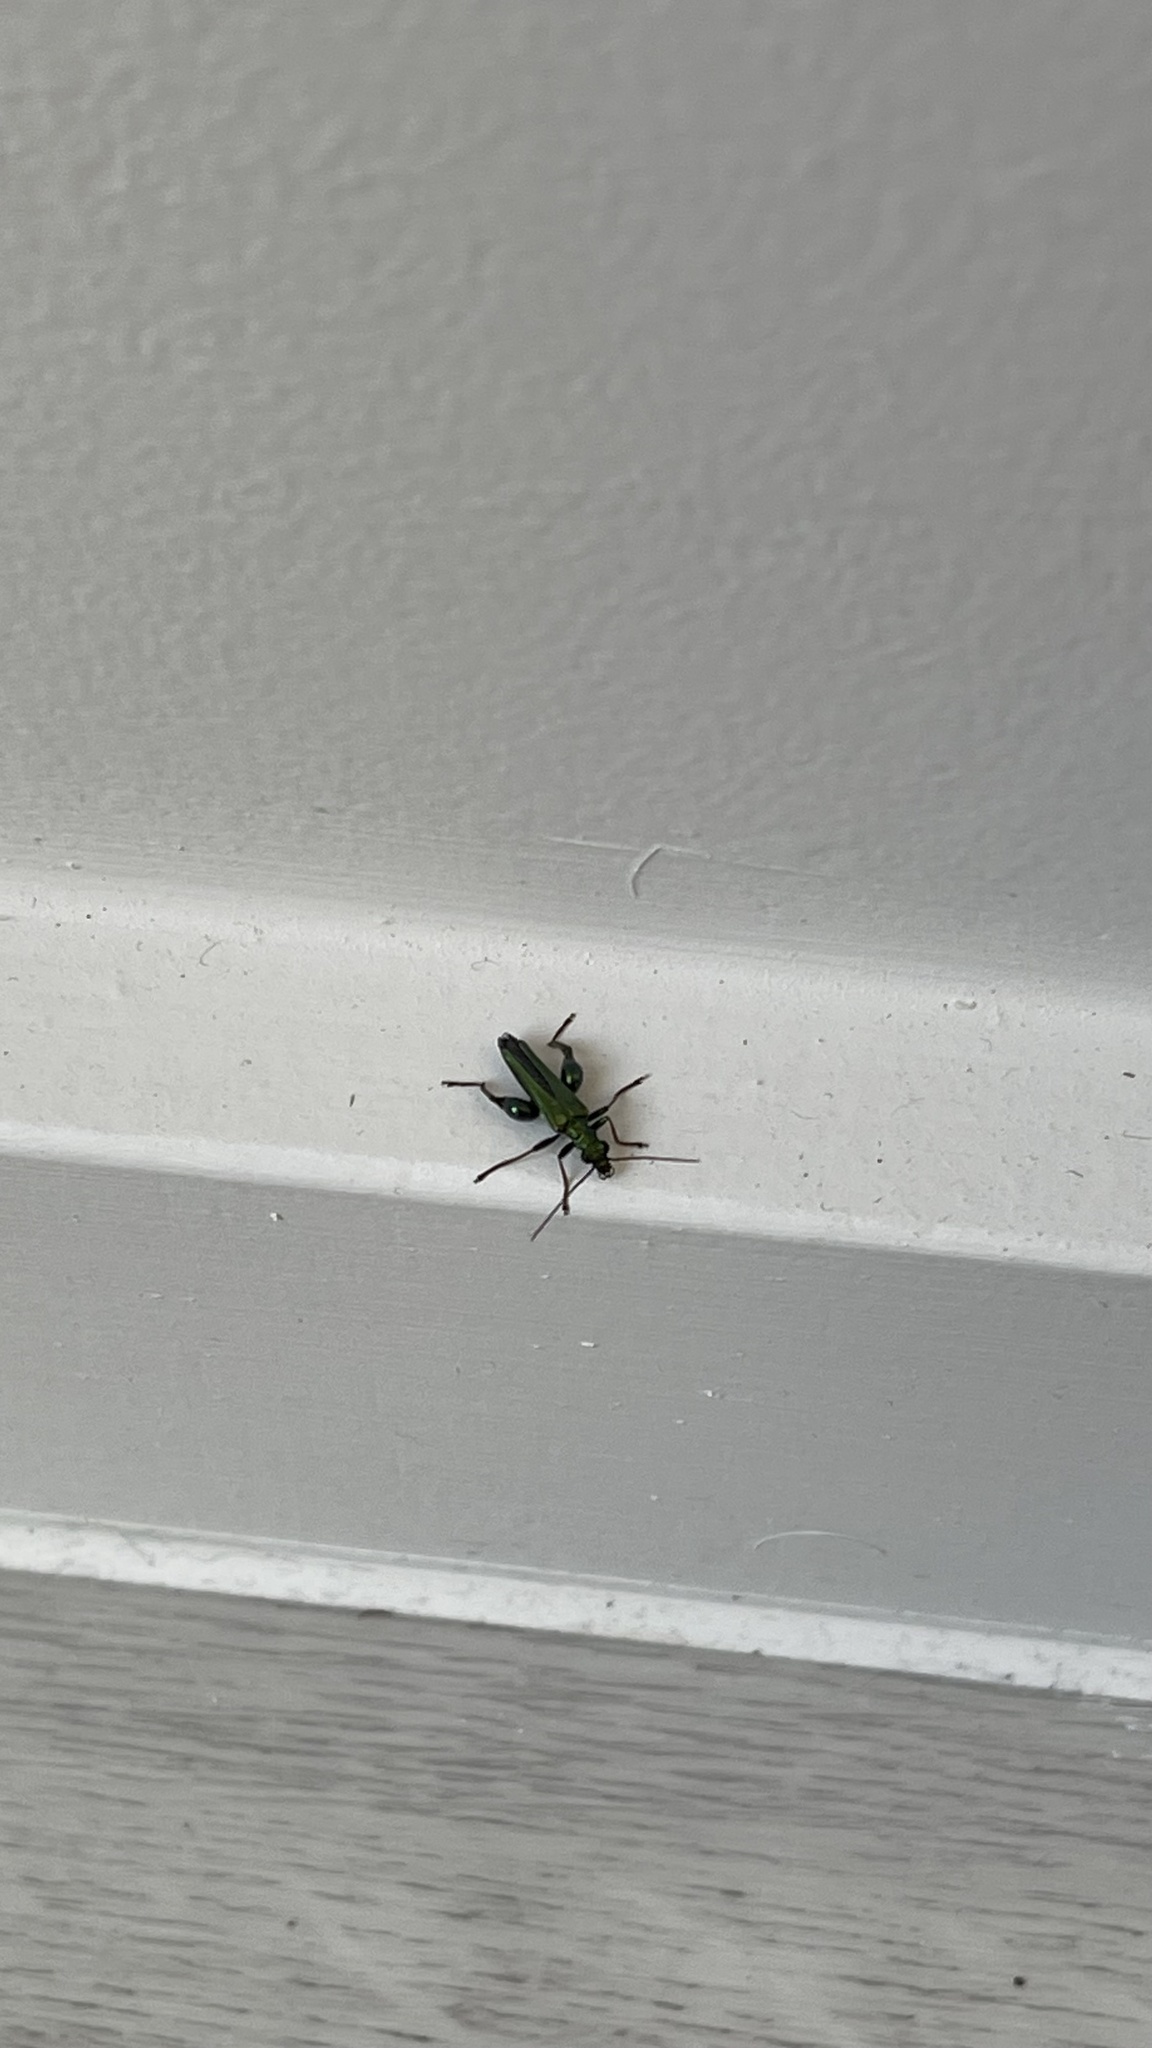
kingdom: Animalia
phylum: Arthropoda
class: Insecta
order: Coleoptera
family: Oedemeridae
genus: Oedemera
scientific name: Oedemera nobilis
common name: Swollen-thighed beetle
